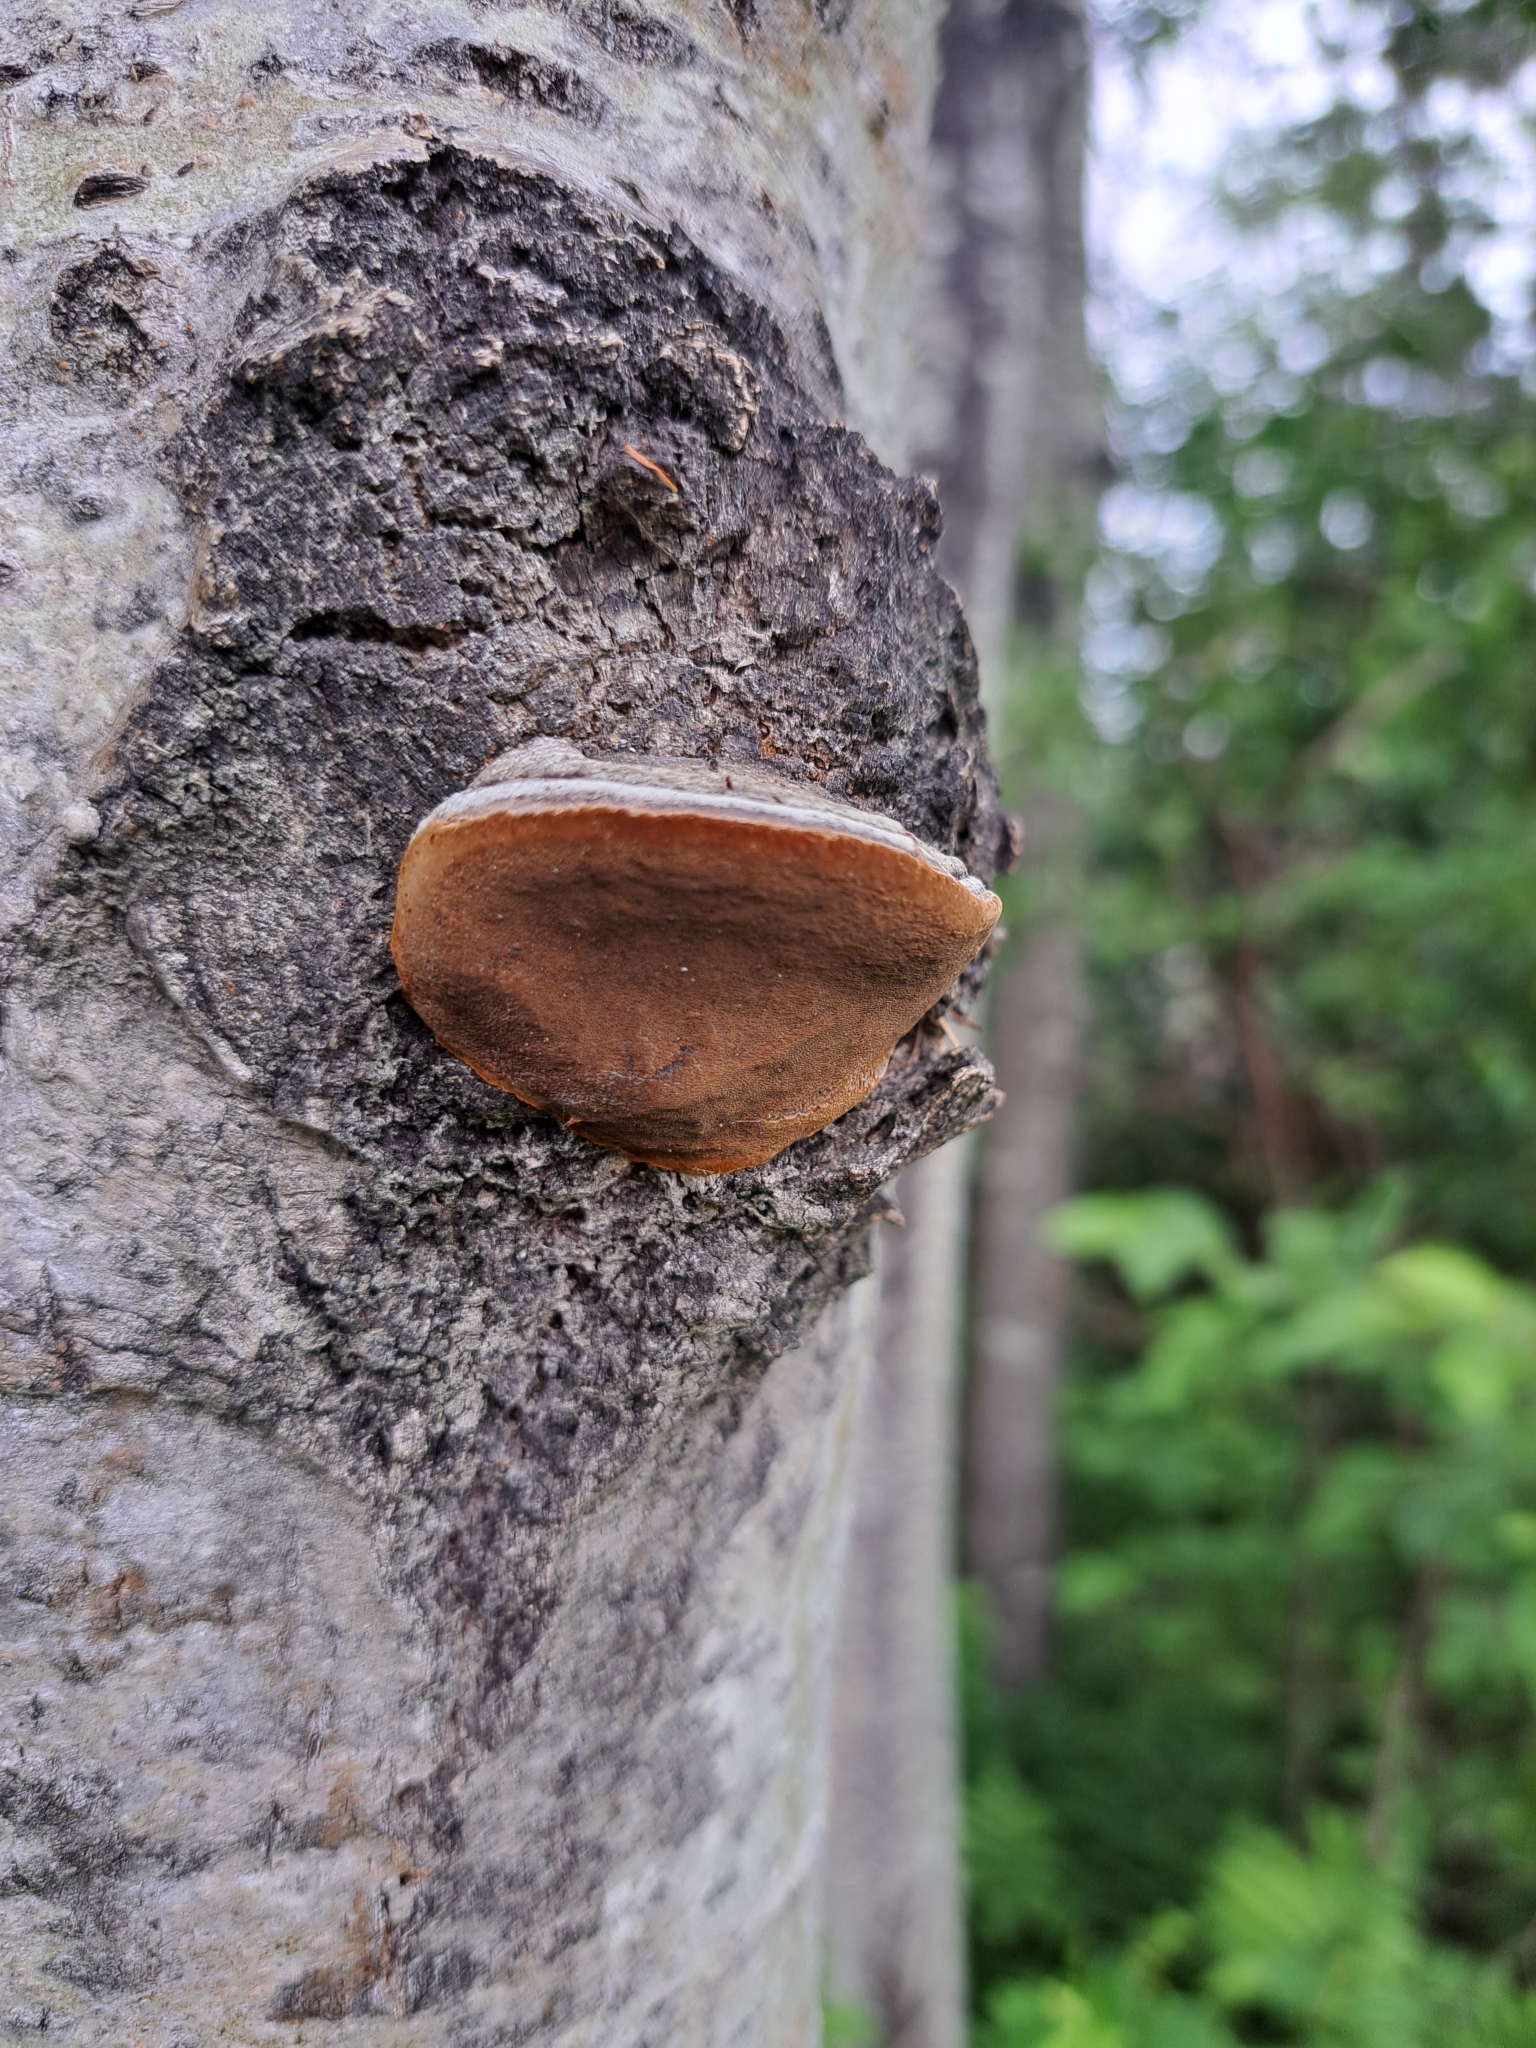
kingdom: Fungi
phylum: Basidiomycota
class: Agaricomycetes
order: Hymenochaetales
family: Hymenochaetaceae
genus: Phellinus
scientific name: Phellinus tremulae
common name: Aspen bracket
